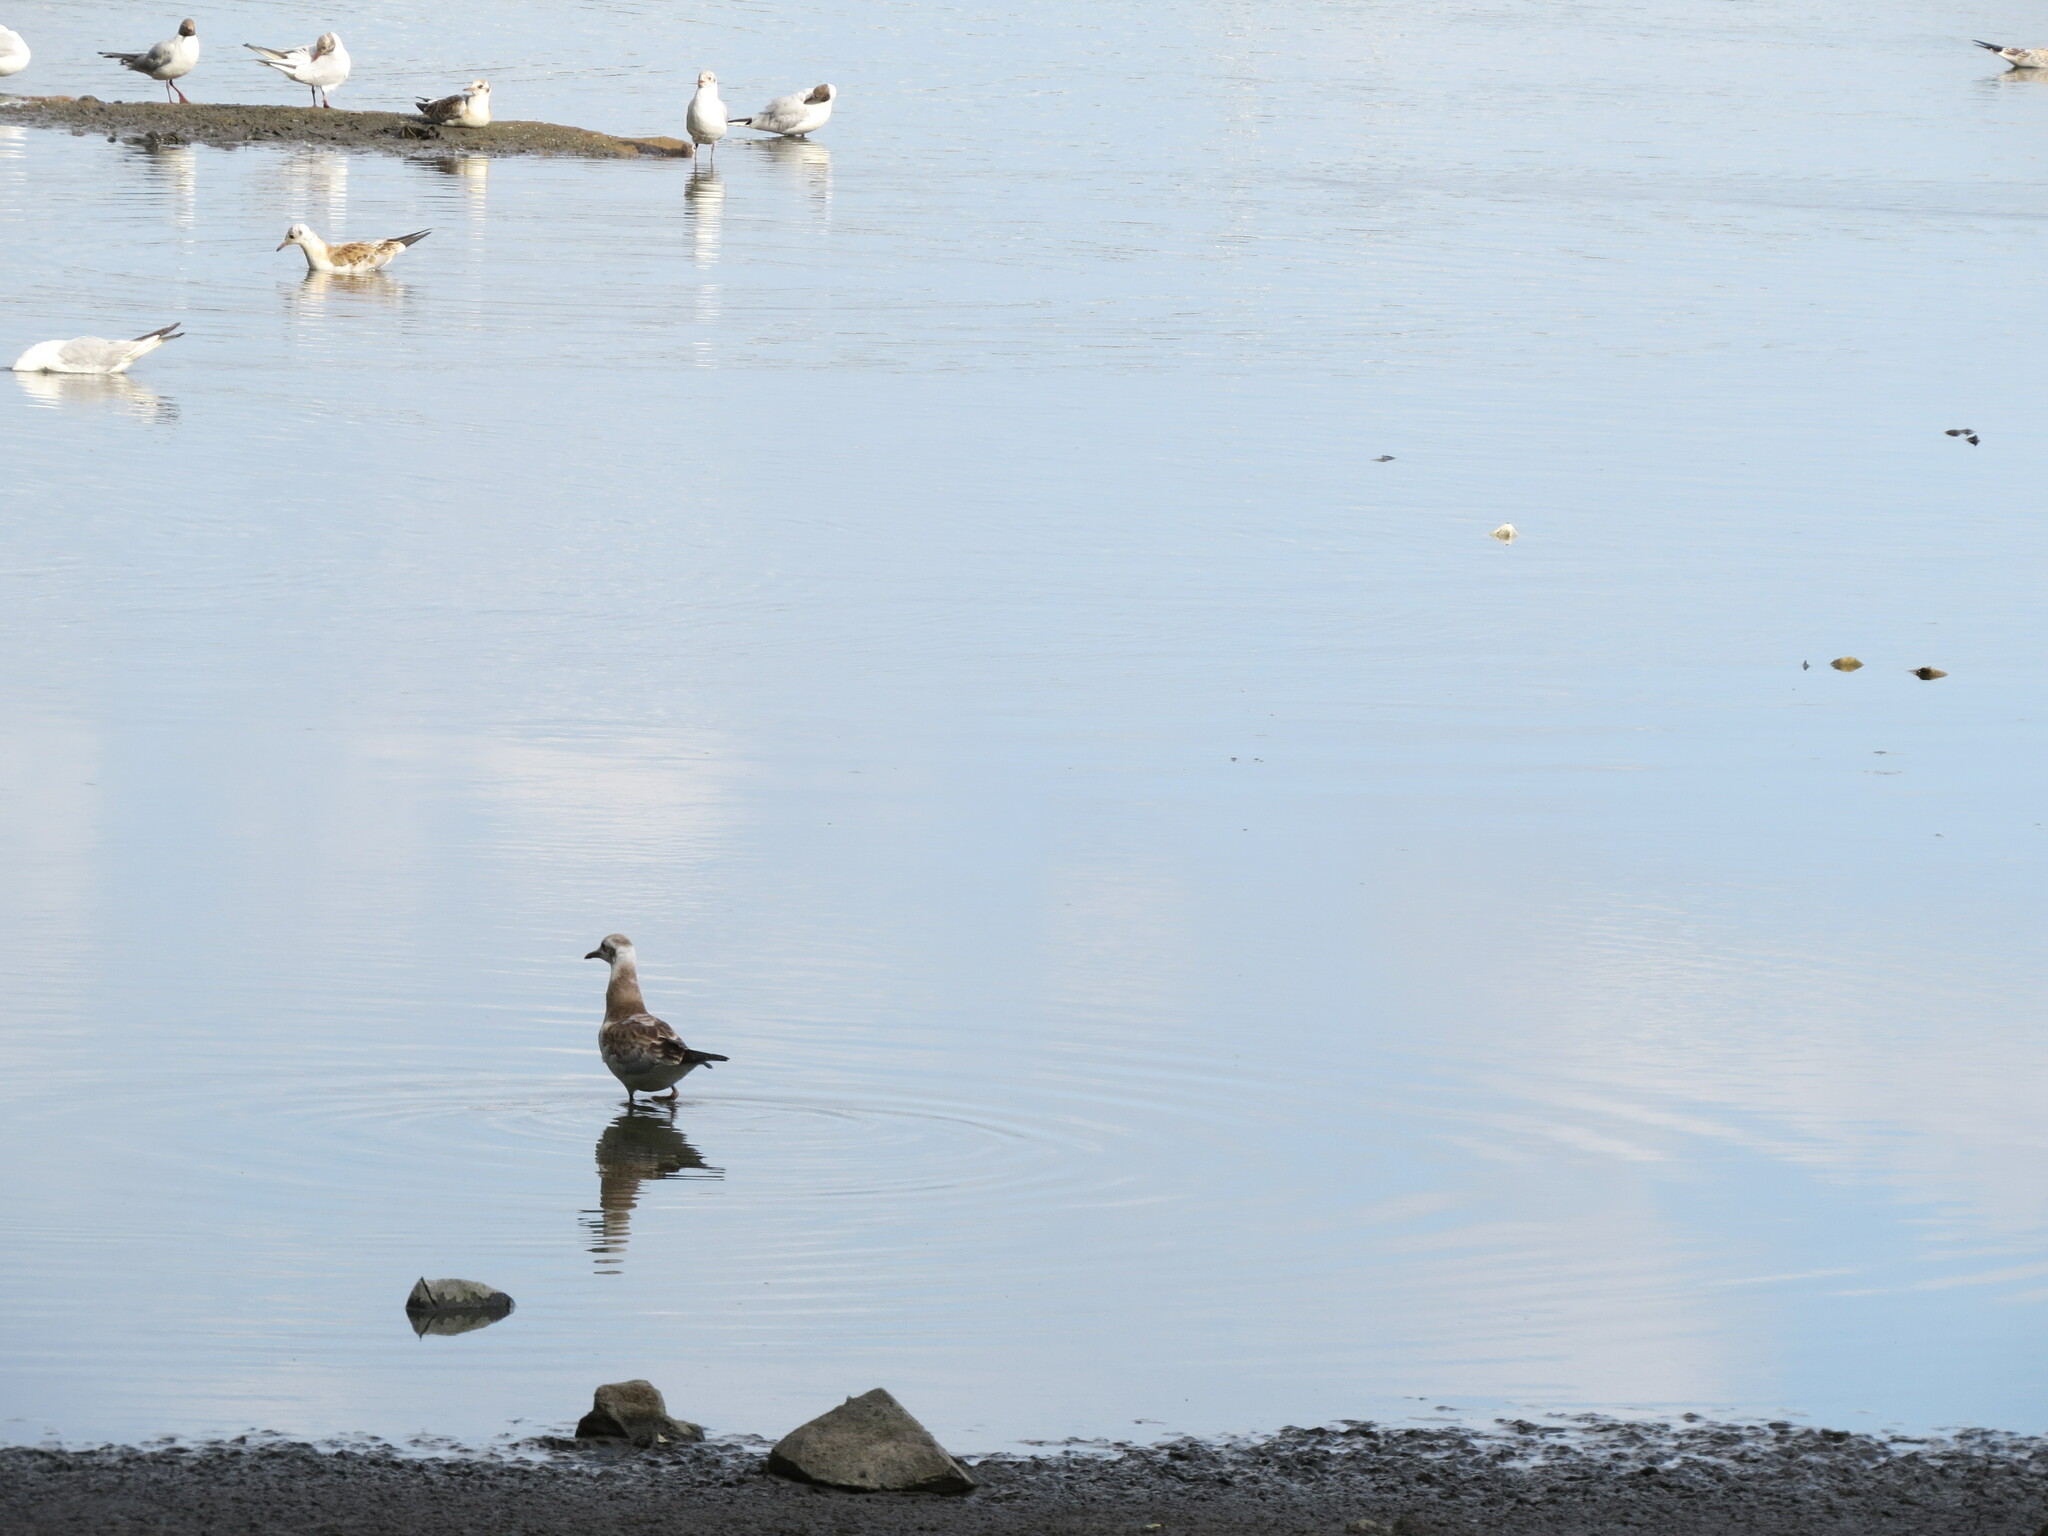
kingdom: Animalia
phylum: Chordata
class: Aves
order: Charadriiformes
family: Laridae
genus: Chroicocephalus
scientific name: Chroicocephalus ridibundus
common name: Black-headed gull
